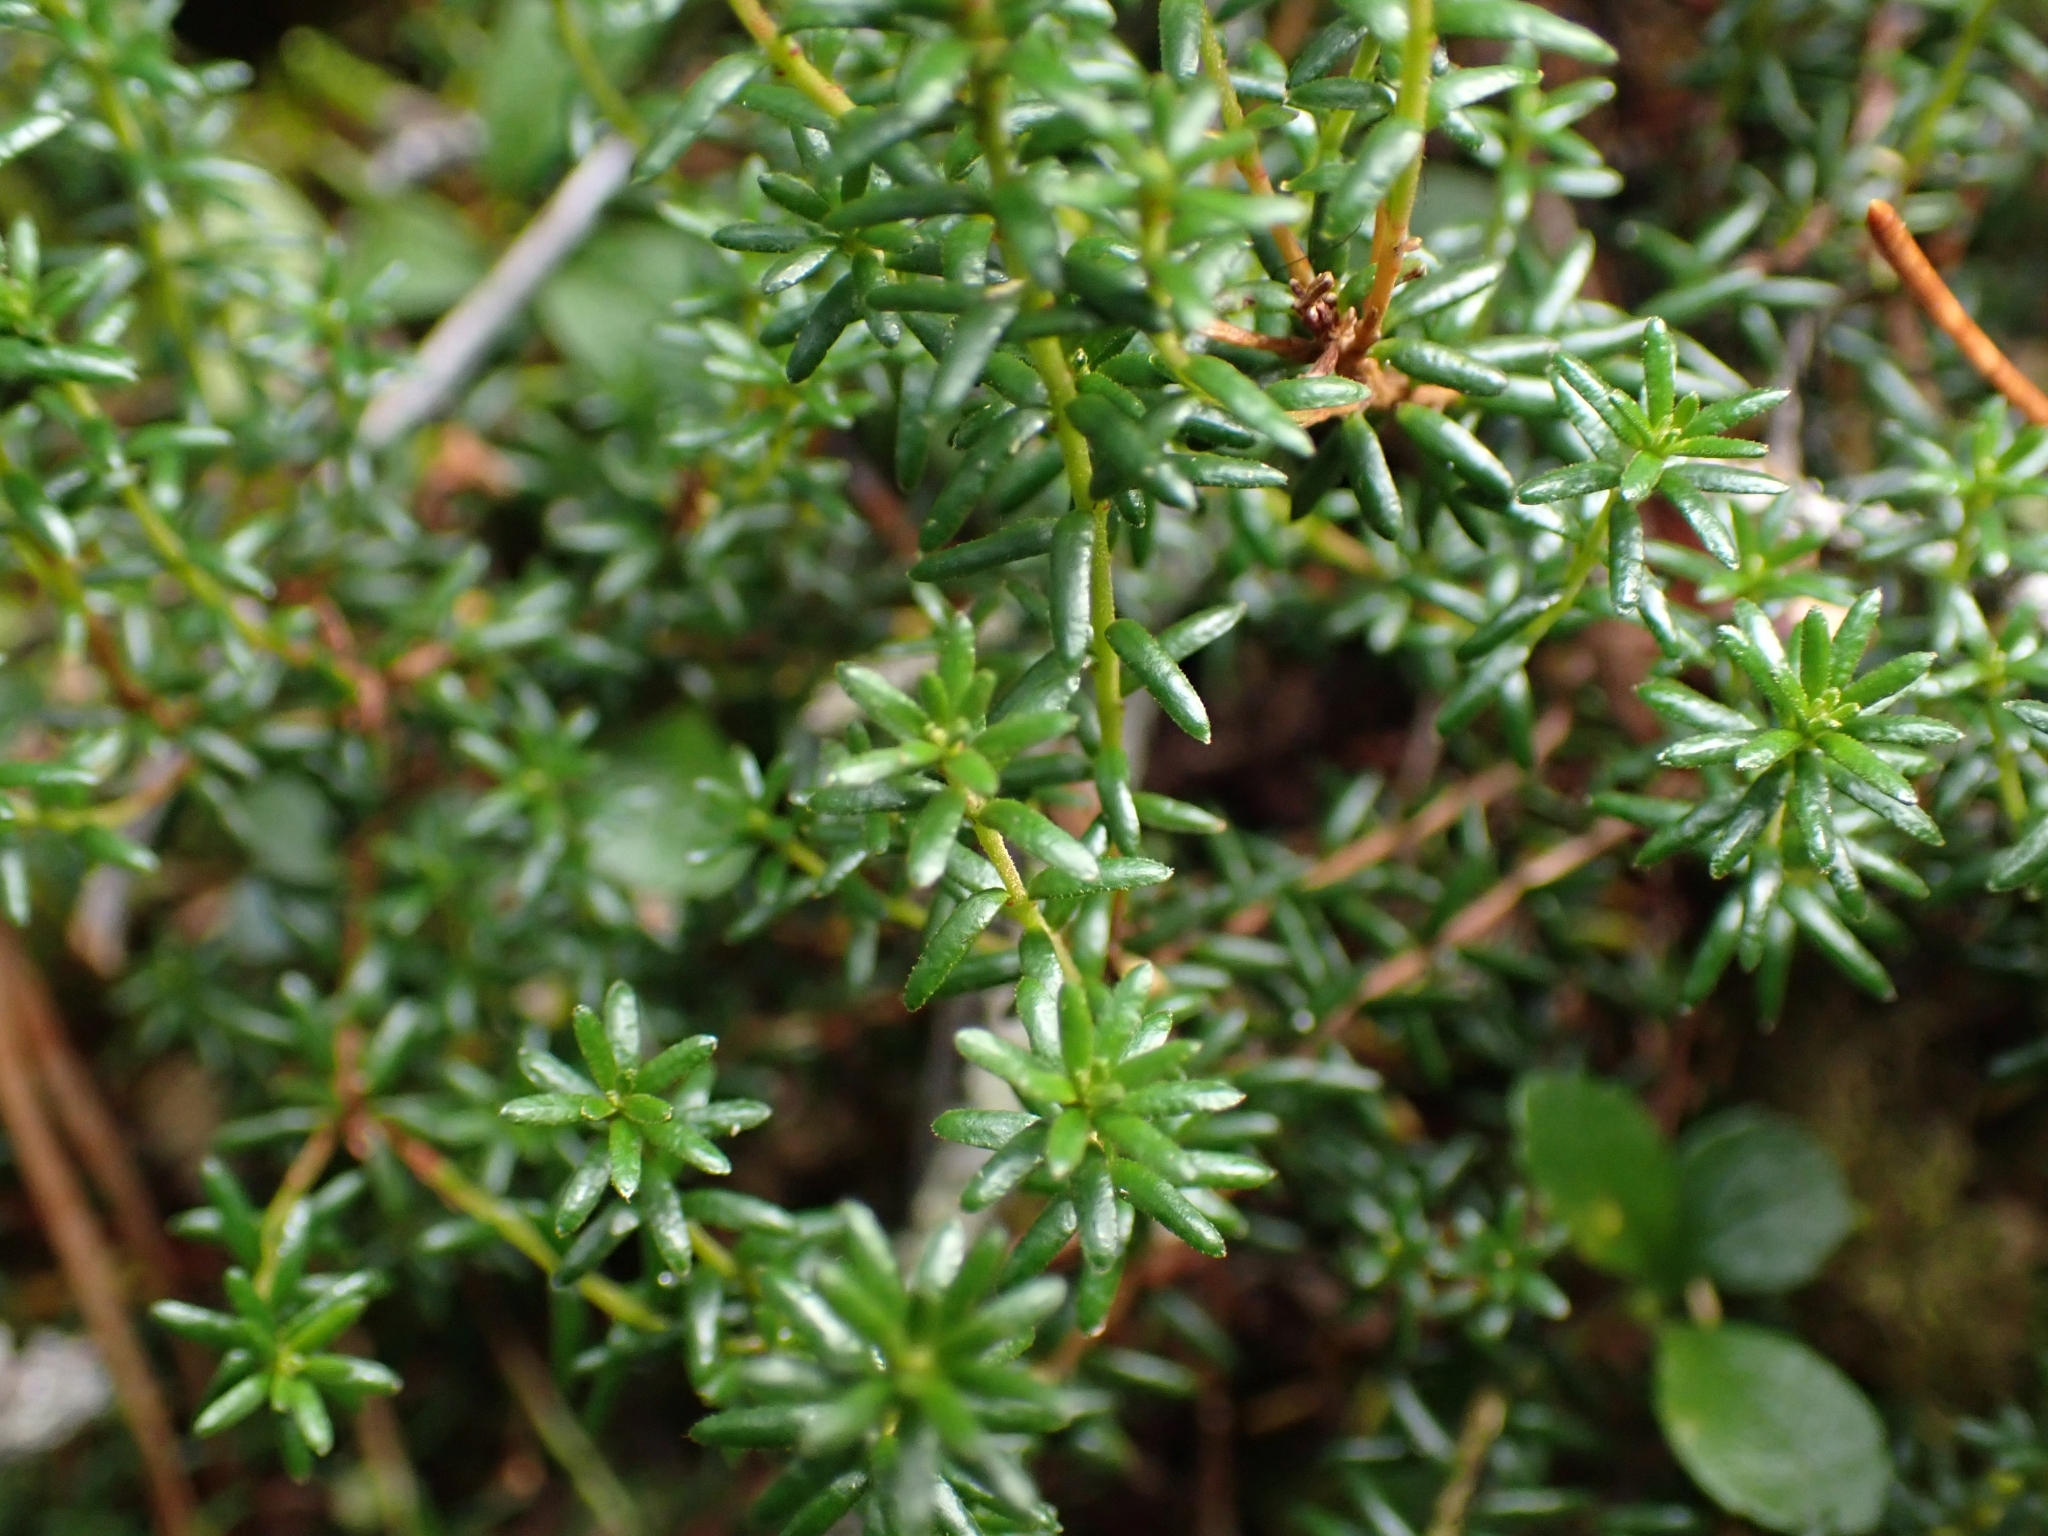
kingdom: Plantae
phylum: Tracheophyta
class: Magnoliopsida
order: Ericales
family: Ericaceae
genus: Empetrum
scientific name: Empetrum nigrum
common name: Black crowberry
